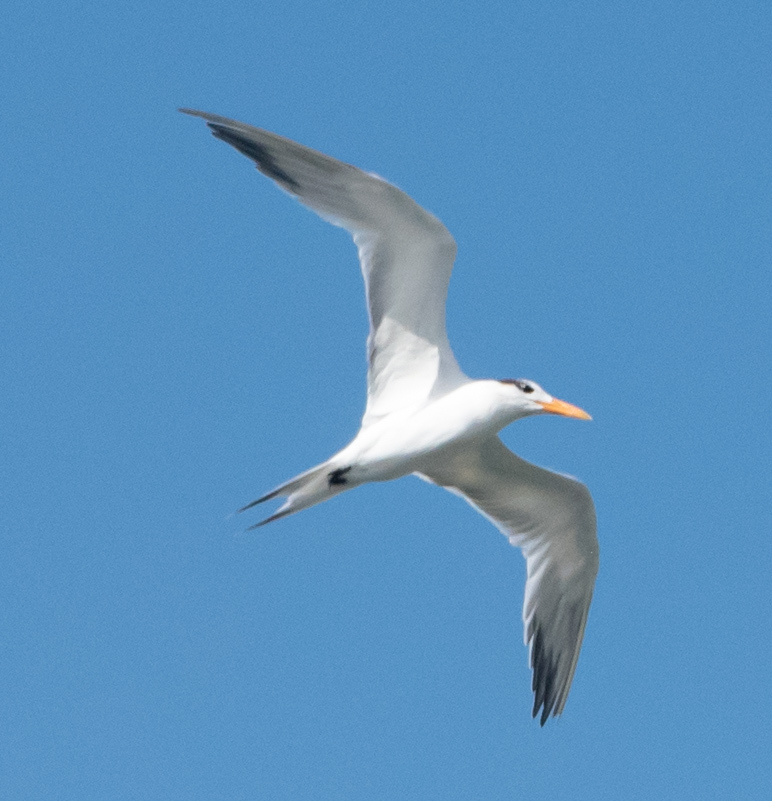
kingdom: Animalia
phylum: Chordata
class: Aves
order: Charadriiformes
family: Laridae
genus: Thalasseus
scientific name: Thalasseus maximus
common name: Royal tern
